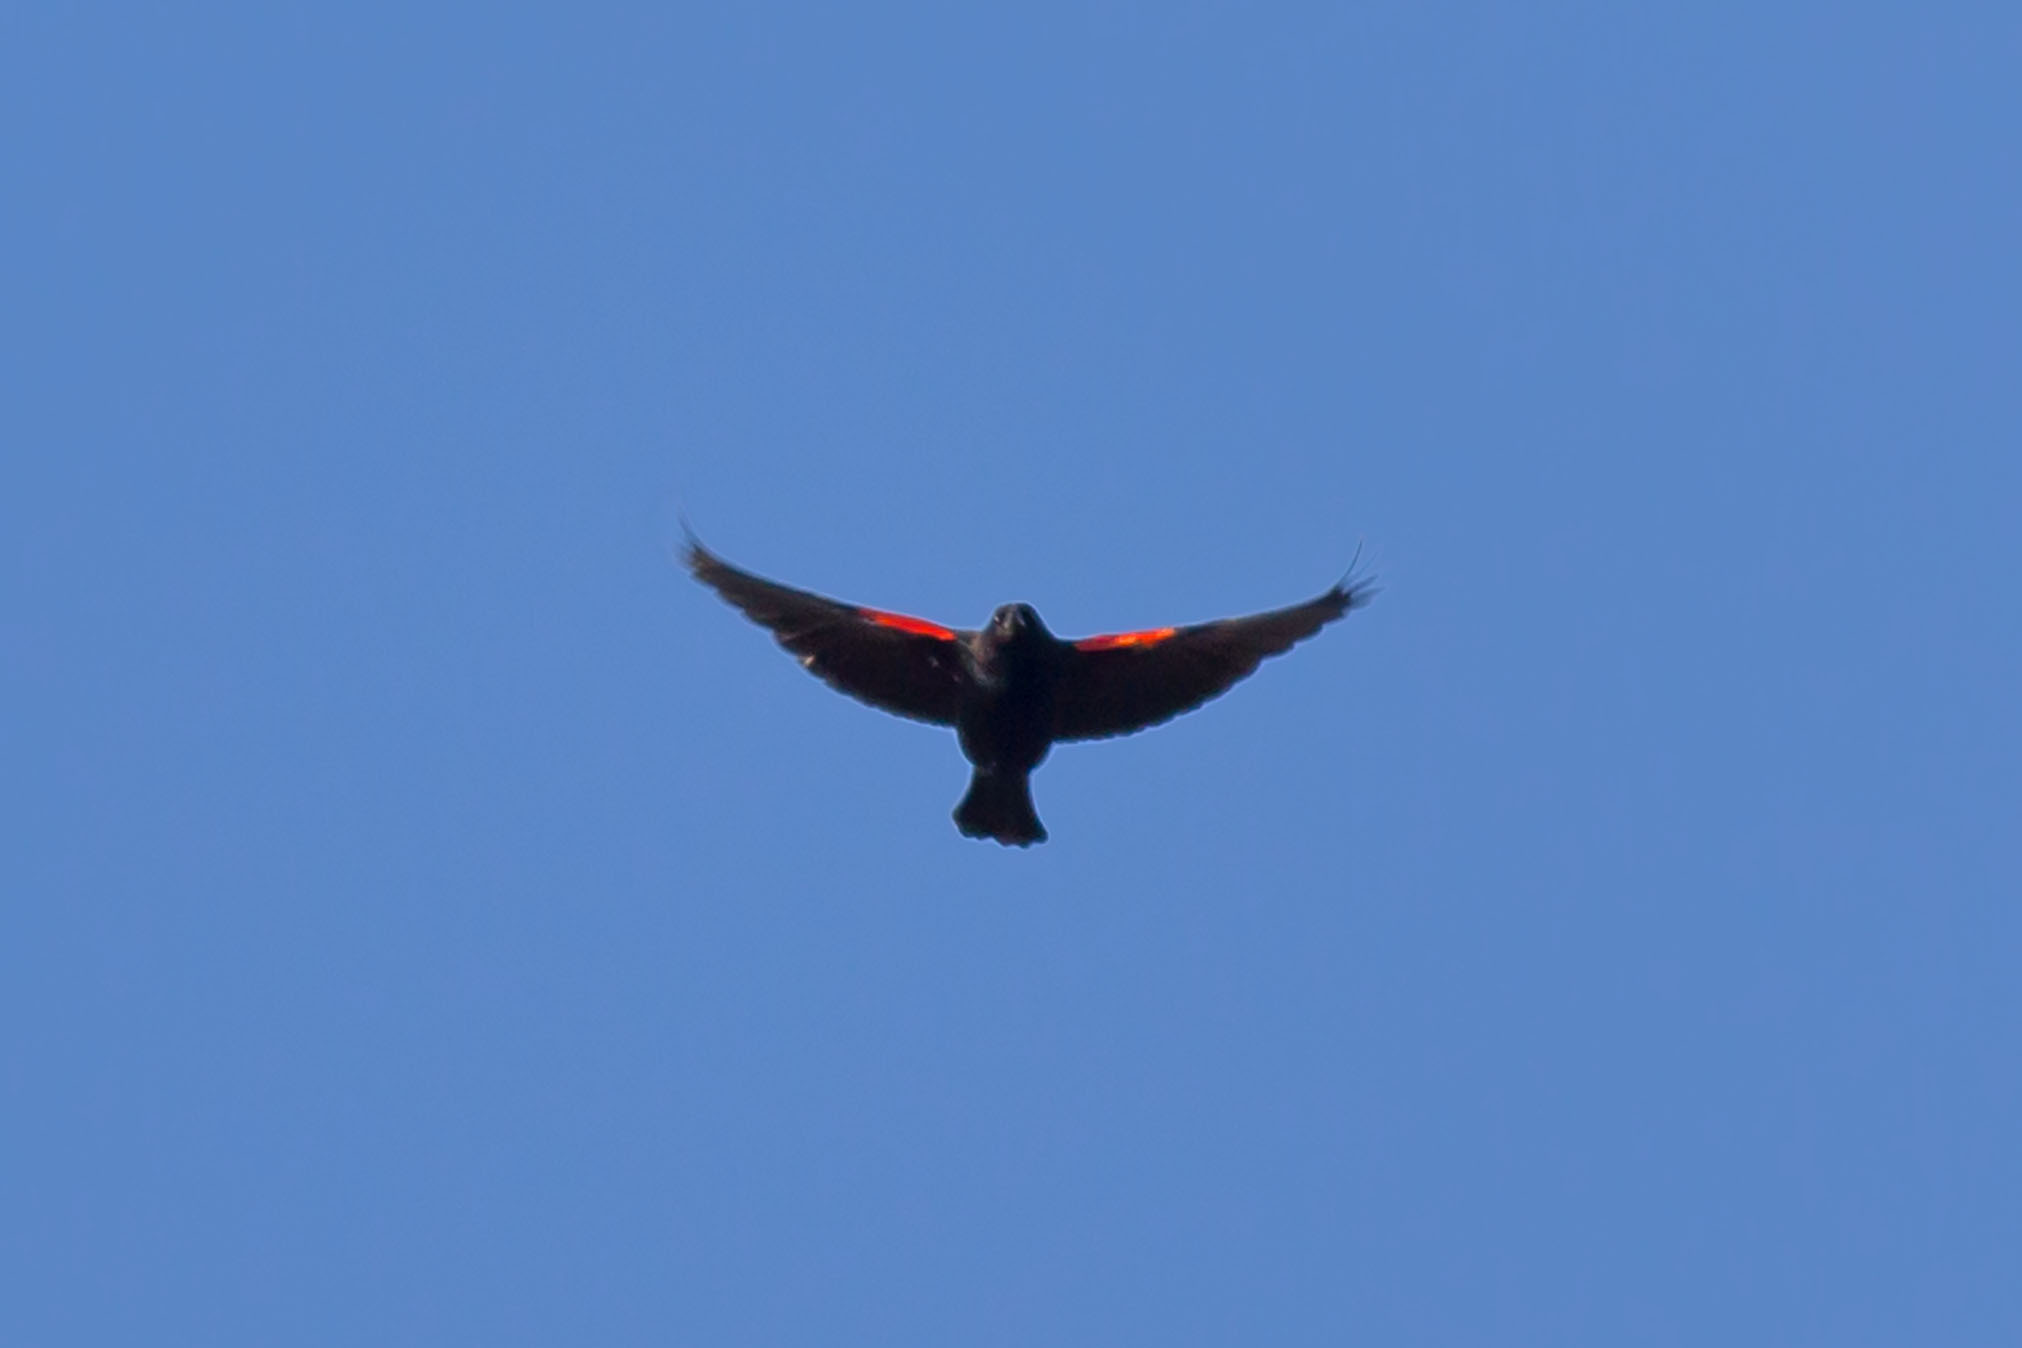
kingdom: Animalia
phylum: Chordata
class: Aves
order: Passeriformes
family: Icteridae
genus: Agelaius
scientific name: Agelaius phoeniceus
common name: Red-winged blackbird
